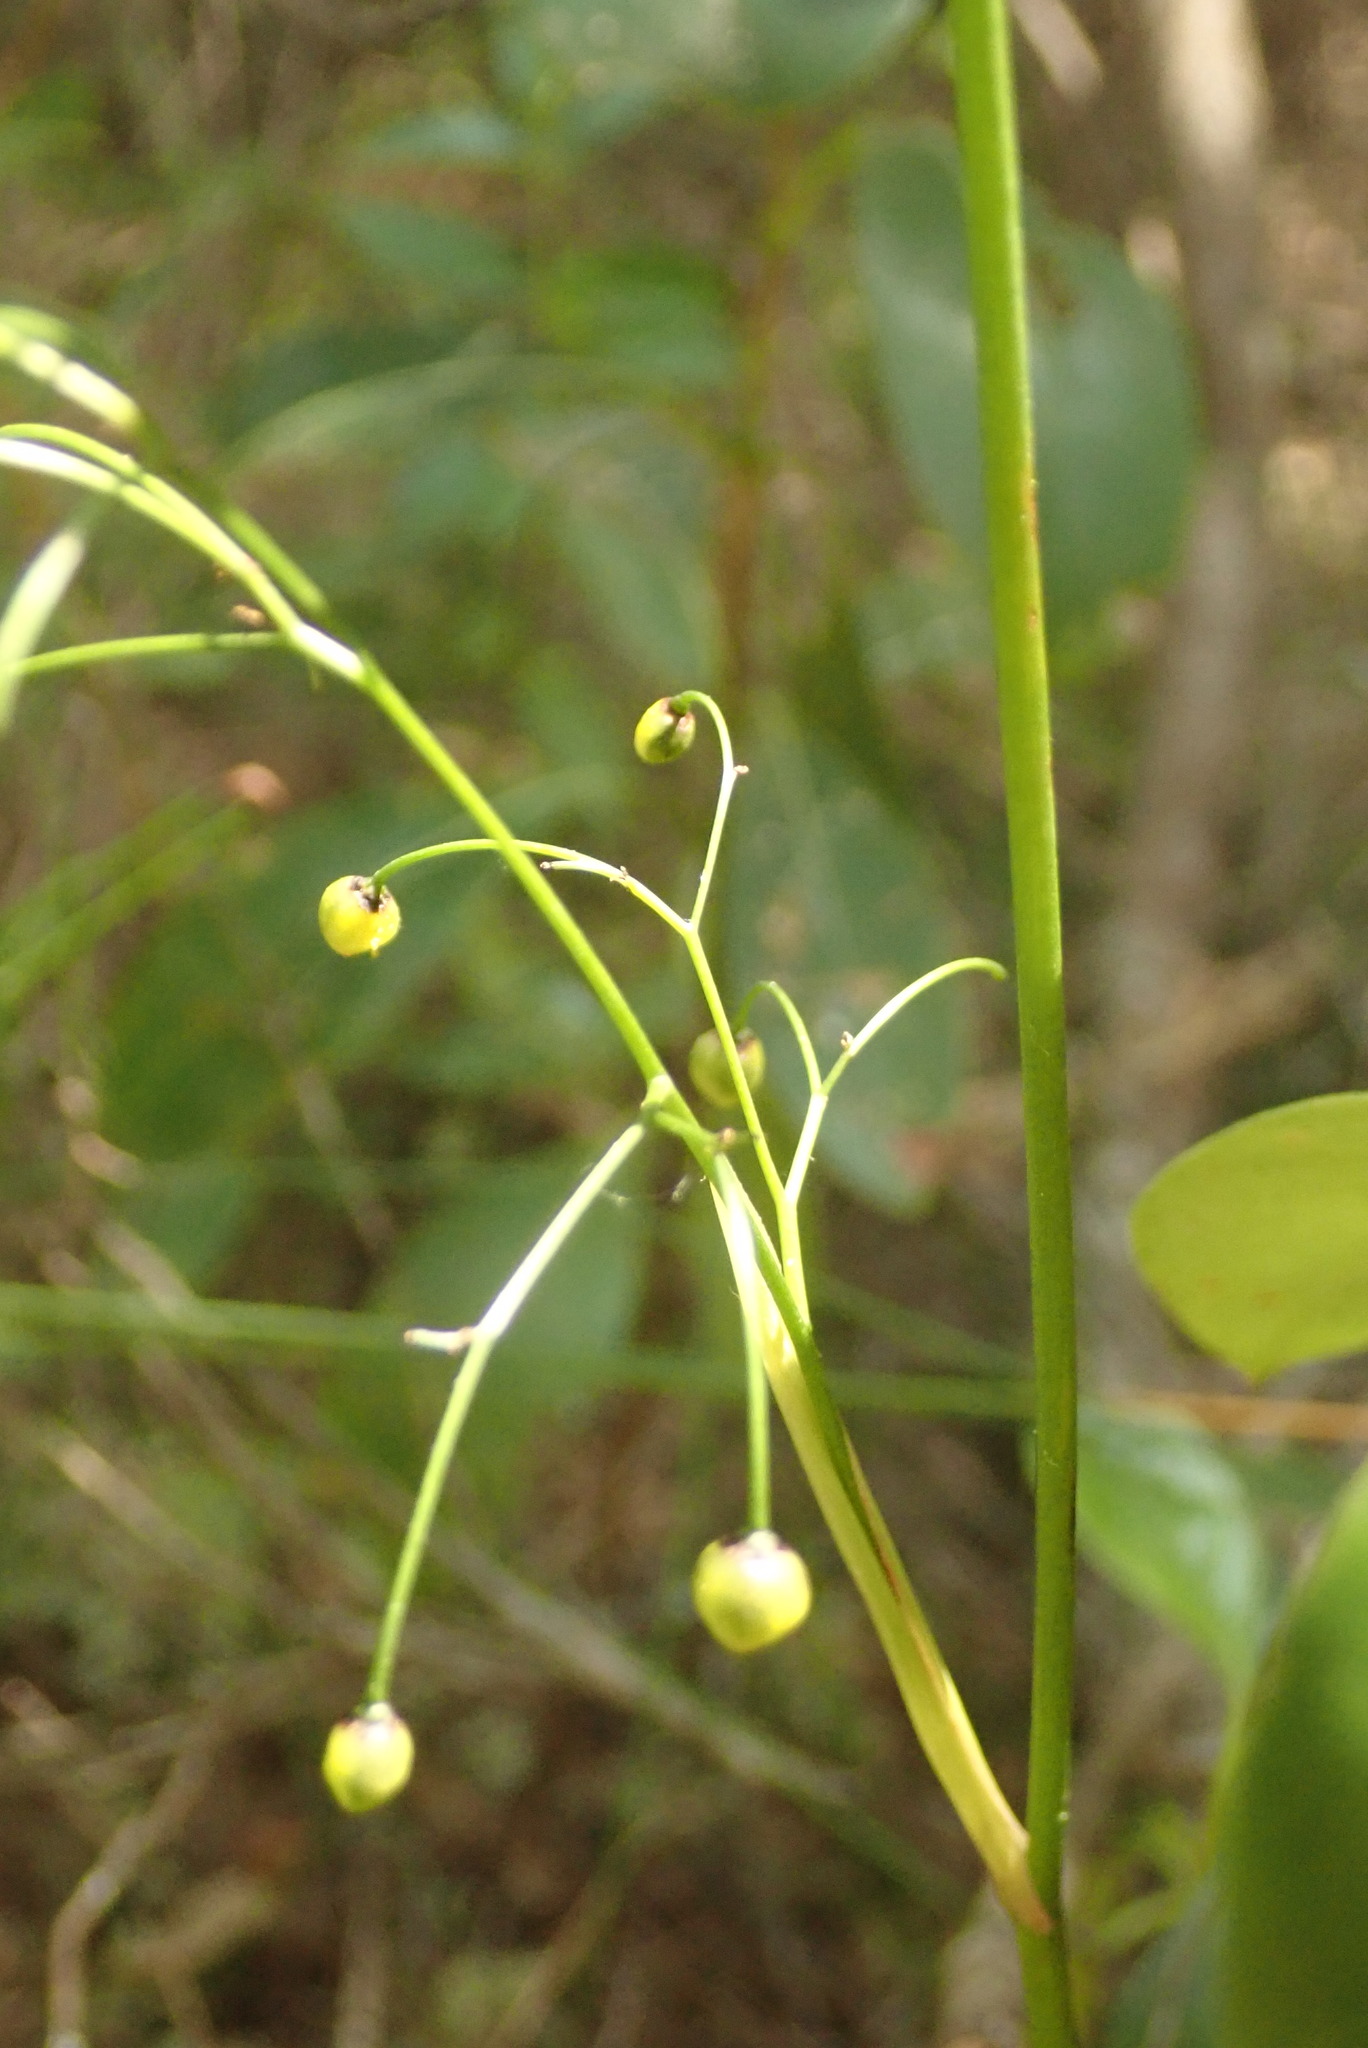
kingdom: Plantae
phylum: Tracheophyta
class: Liliopsida
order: Asparagales
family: Asphodelaceae
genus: Dianella
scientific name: Dianella nigra
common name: New zealand-blueberry
